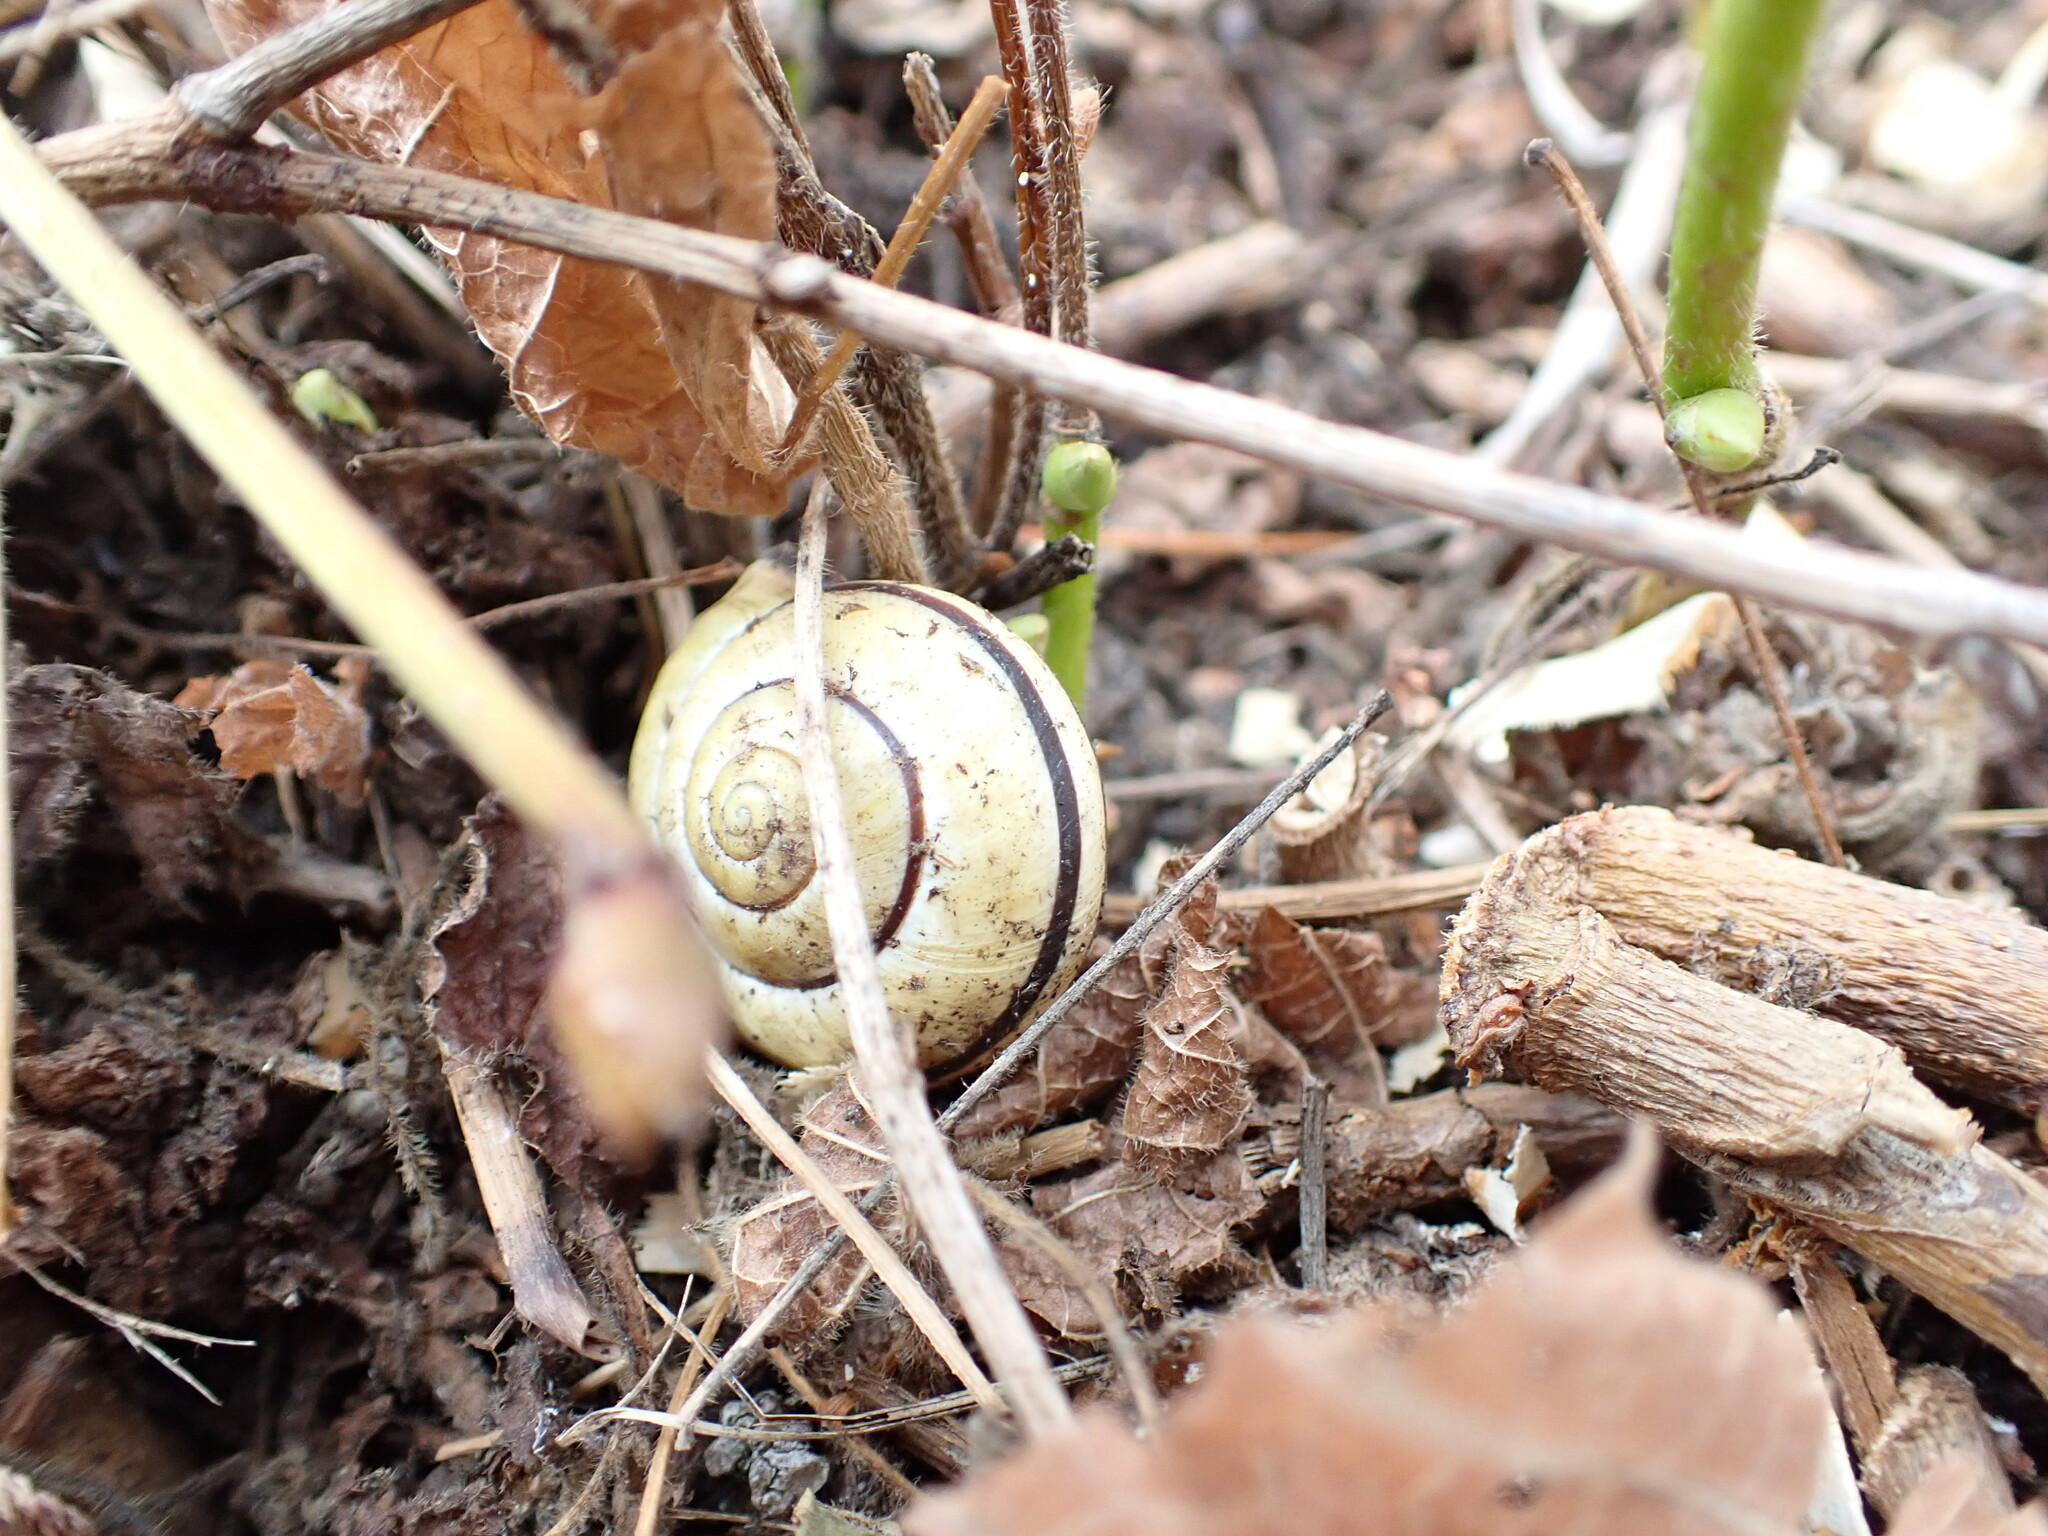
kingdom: Animalia
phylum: Mollusca
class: Gastropoda
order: Stylommatophora
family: Helicidae
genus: Cepaea
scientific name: Cepaea nemoralis
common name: Grovesnail
